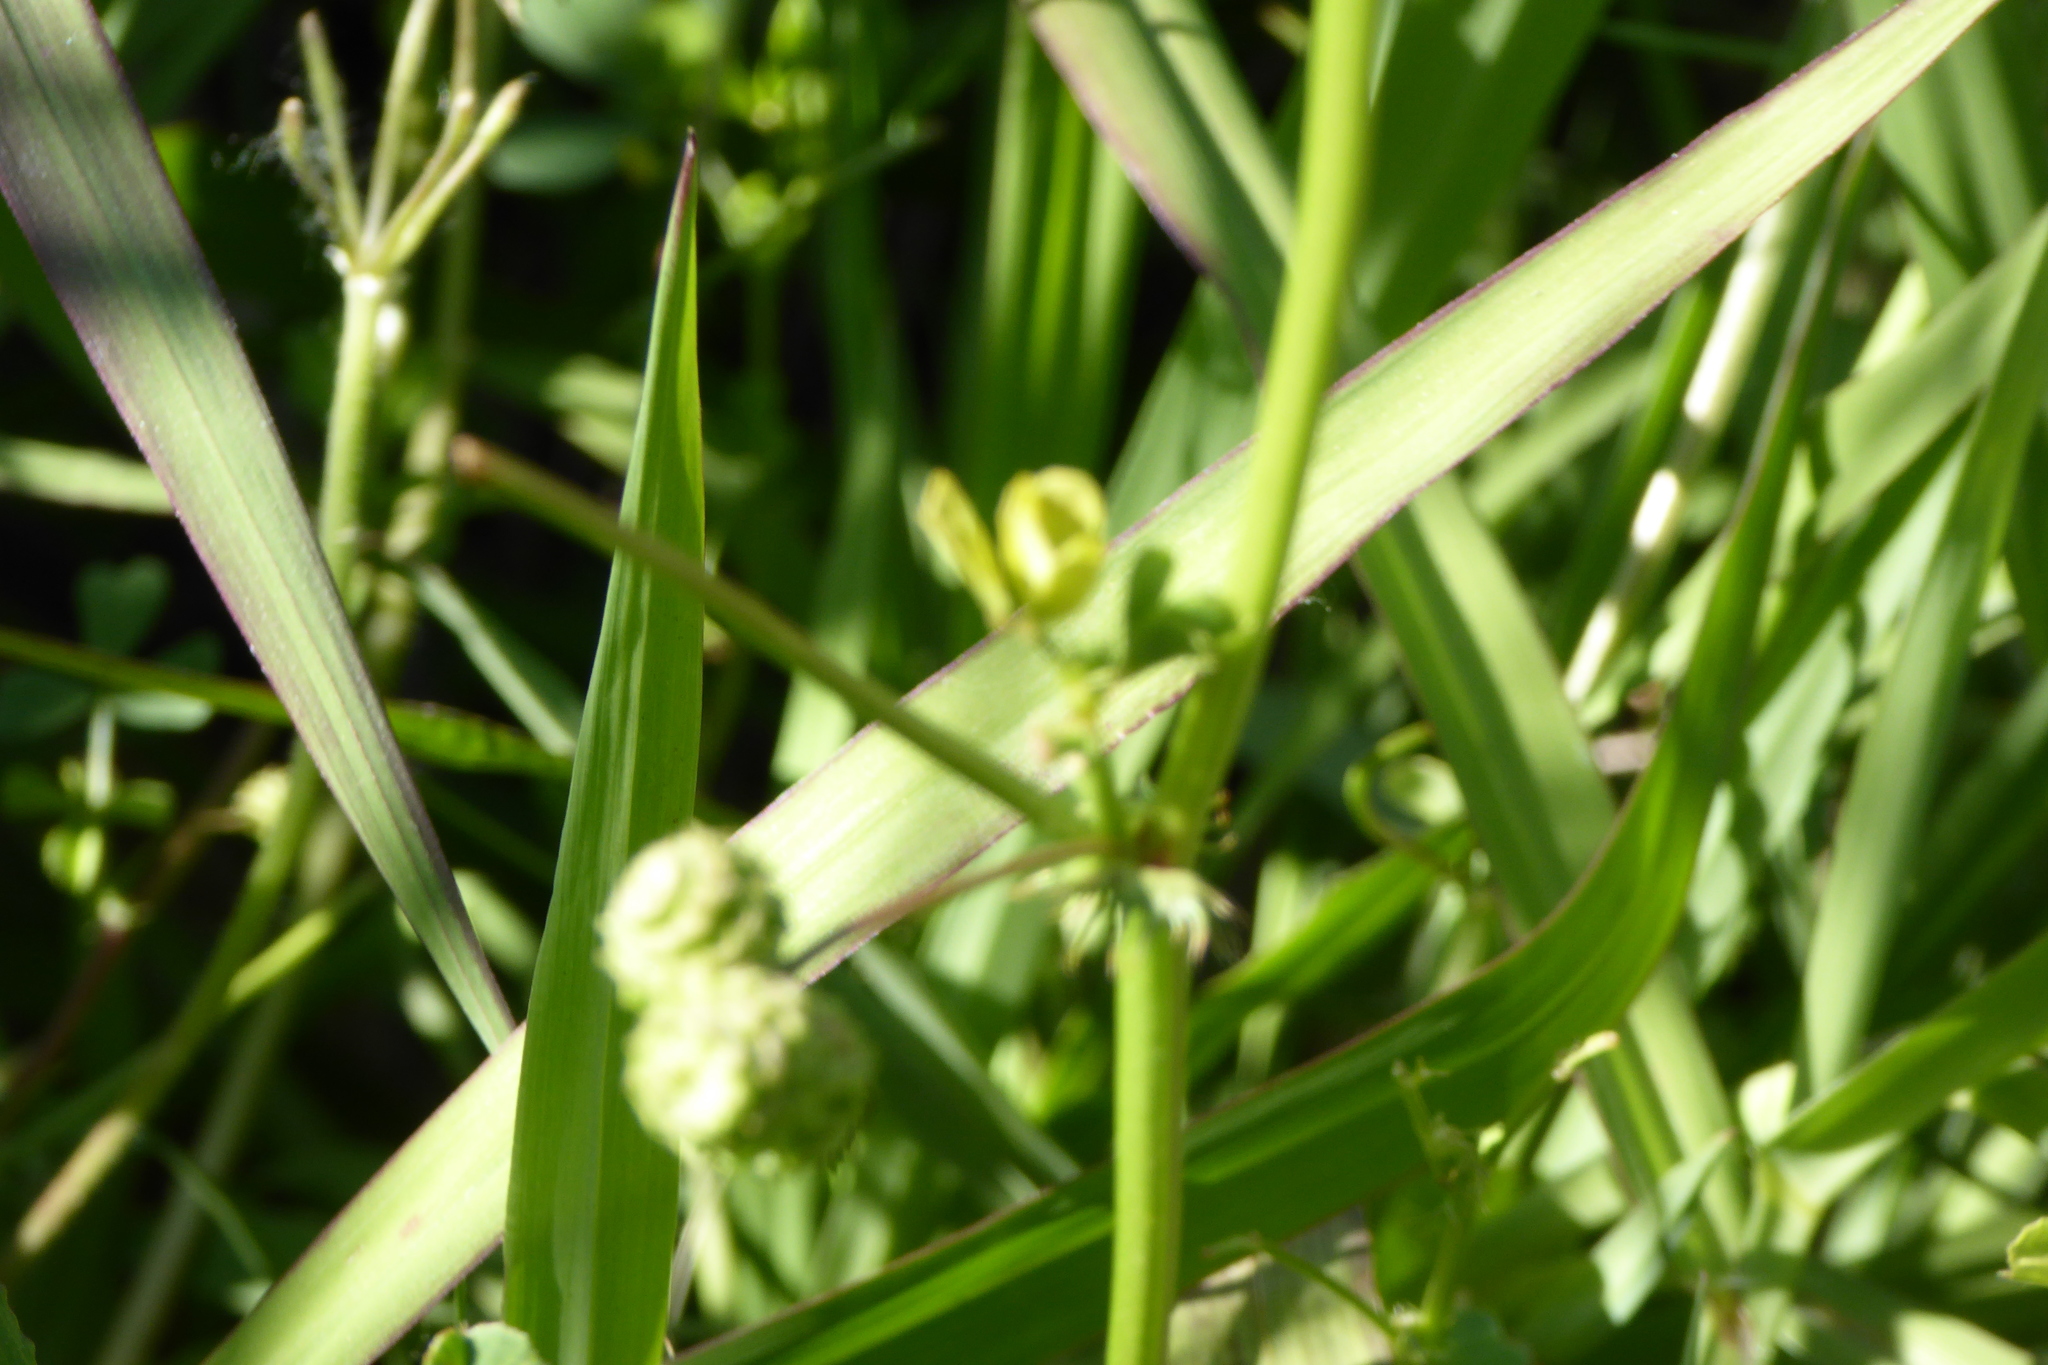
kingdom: Plantae
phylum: Tracheophyta
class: Magnoliopsida
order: Fabales
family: Fabaceae
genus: Medicago
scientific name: Medicago polymorpha
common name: Burclover
